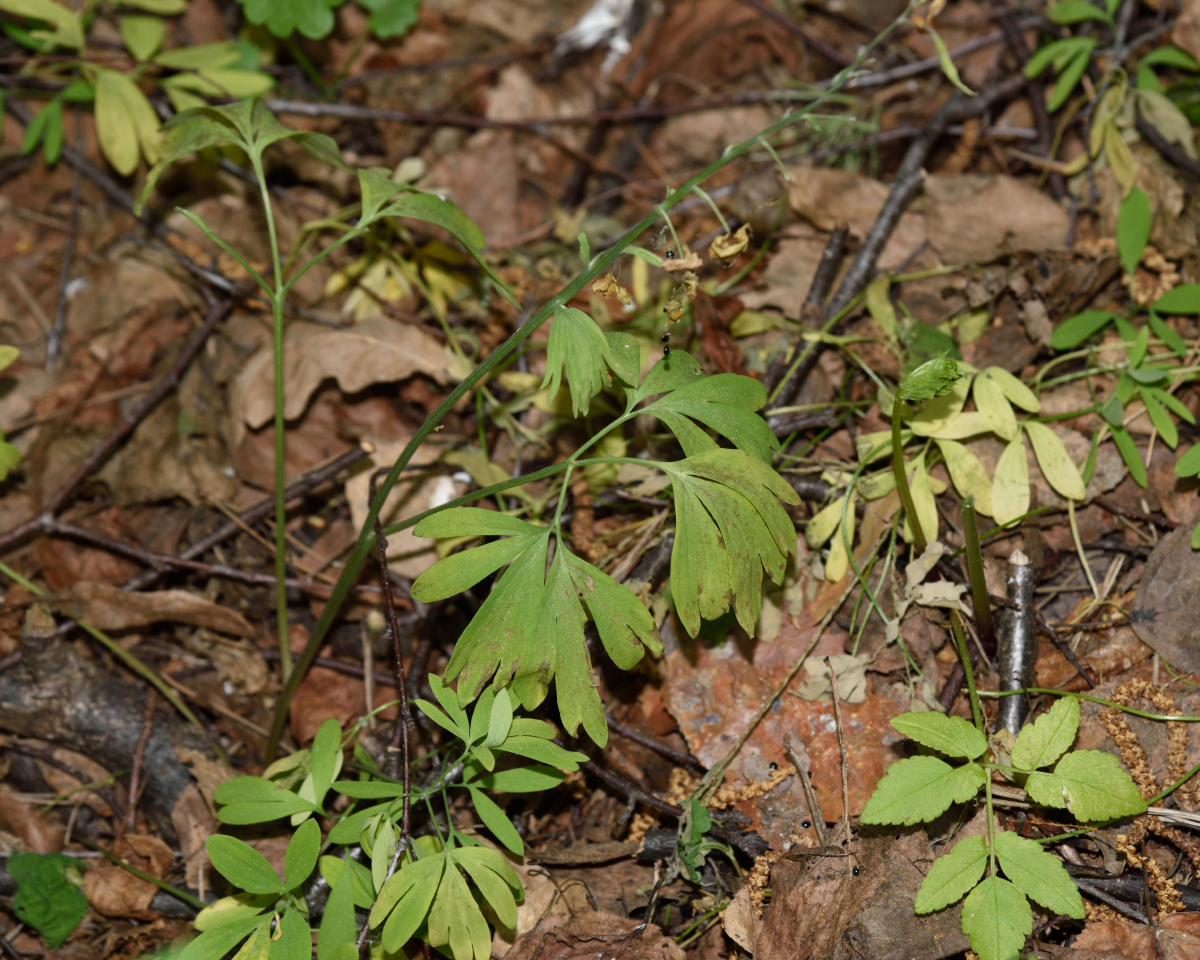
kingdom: Plantae
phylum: Tracheophyta
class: Magnoliopsida
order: Ranunculales
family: Papaveraceae
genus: Corydalis
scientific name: Corydalis solida
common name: Bird-in-a-bush
